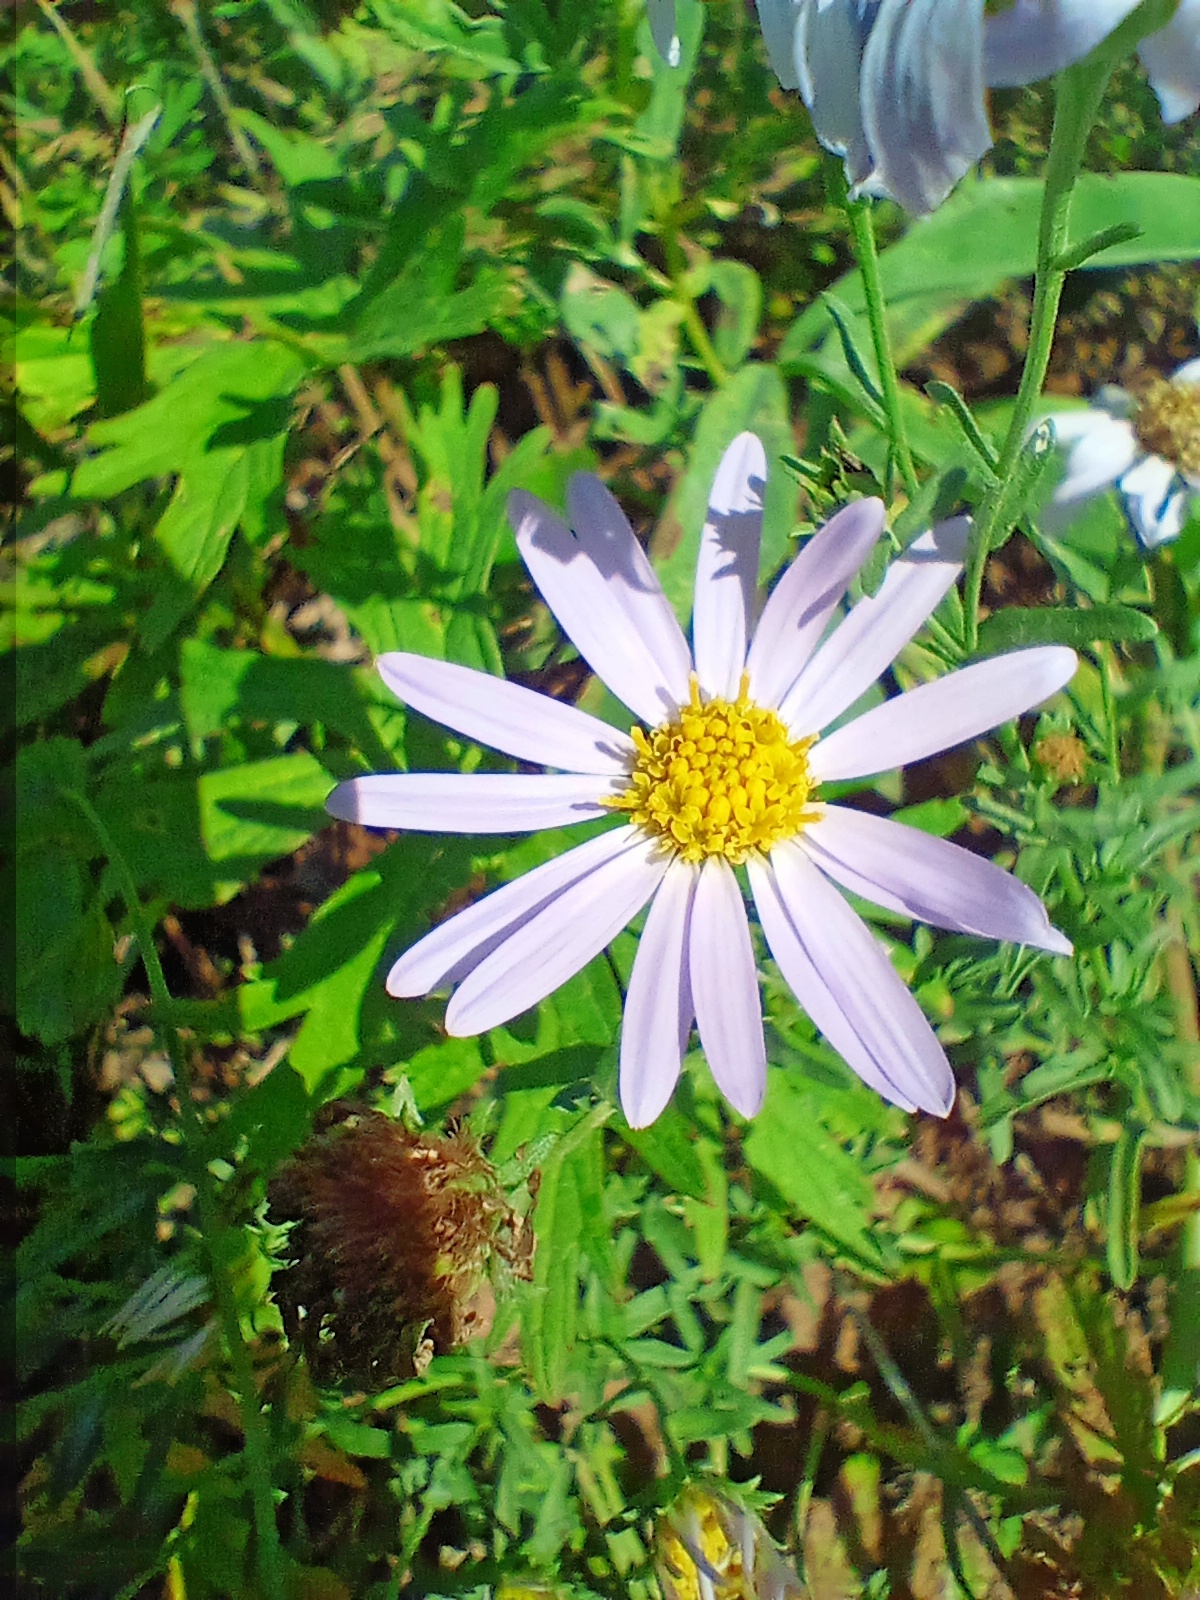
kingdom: Plantae
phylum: Tracheophyta
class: Magnoliopsida
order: Asterales
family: Asteraceae
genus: Heteropappus
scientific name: Heteropappus altaicus
